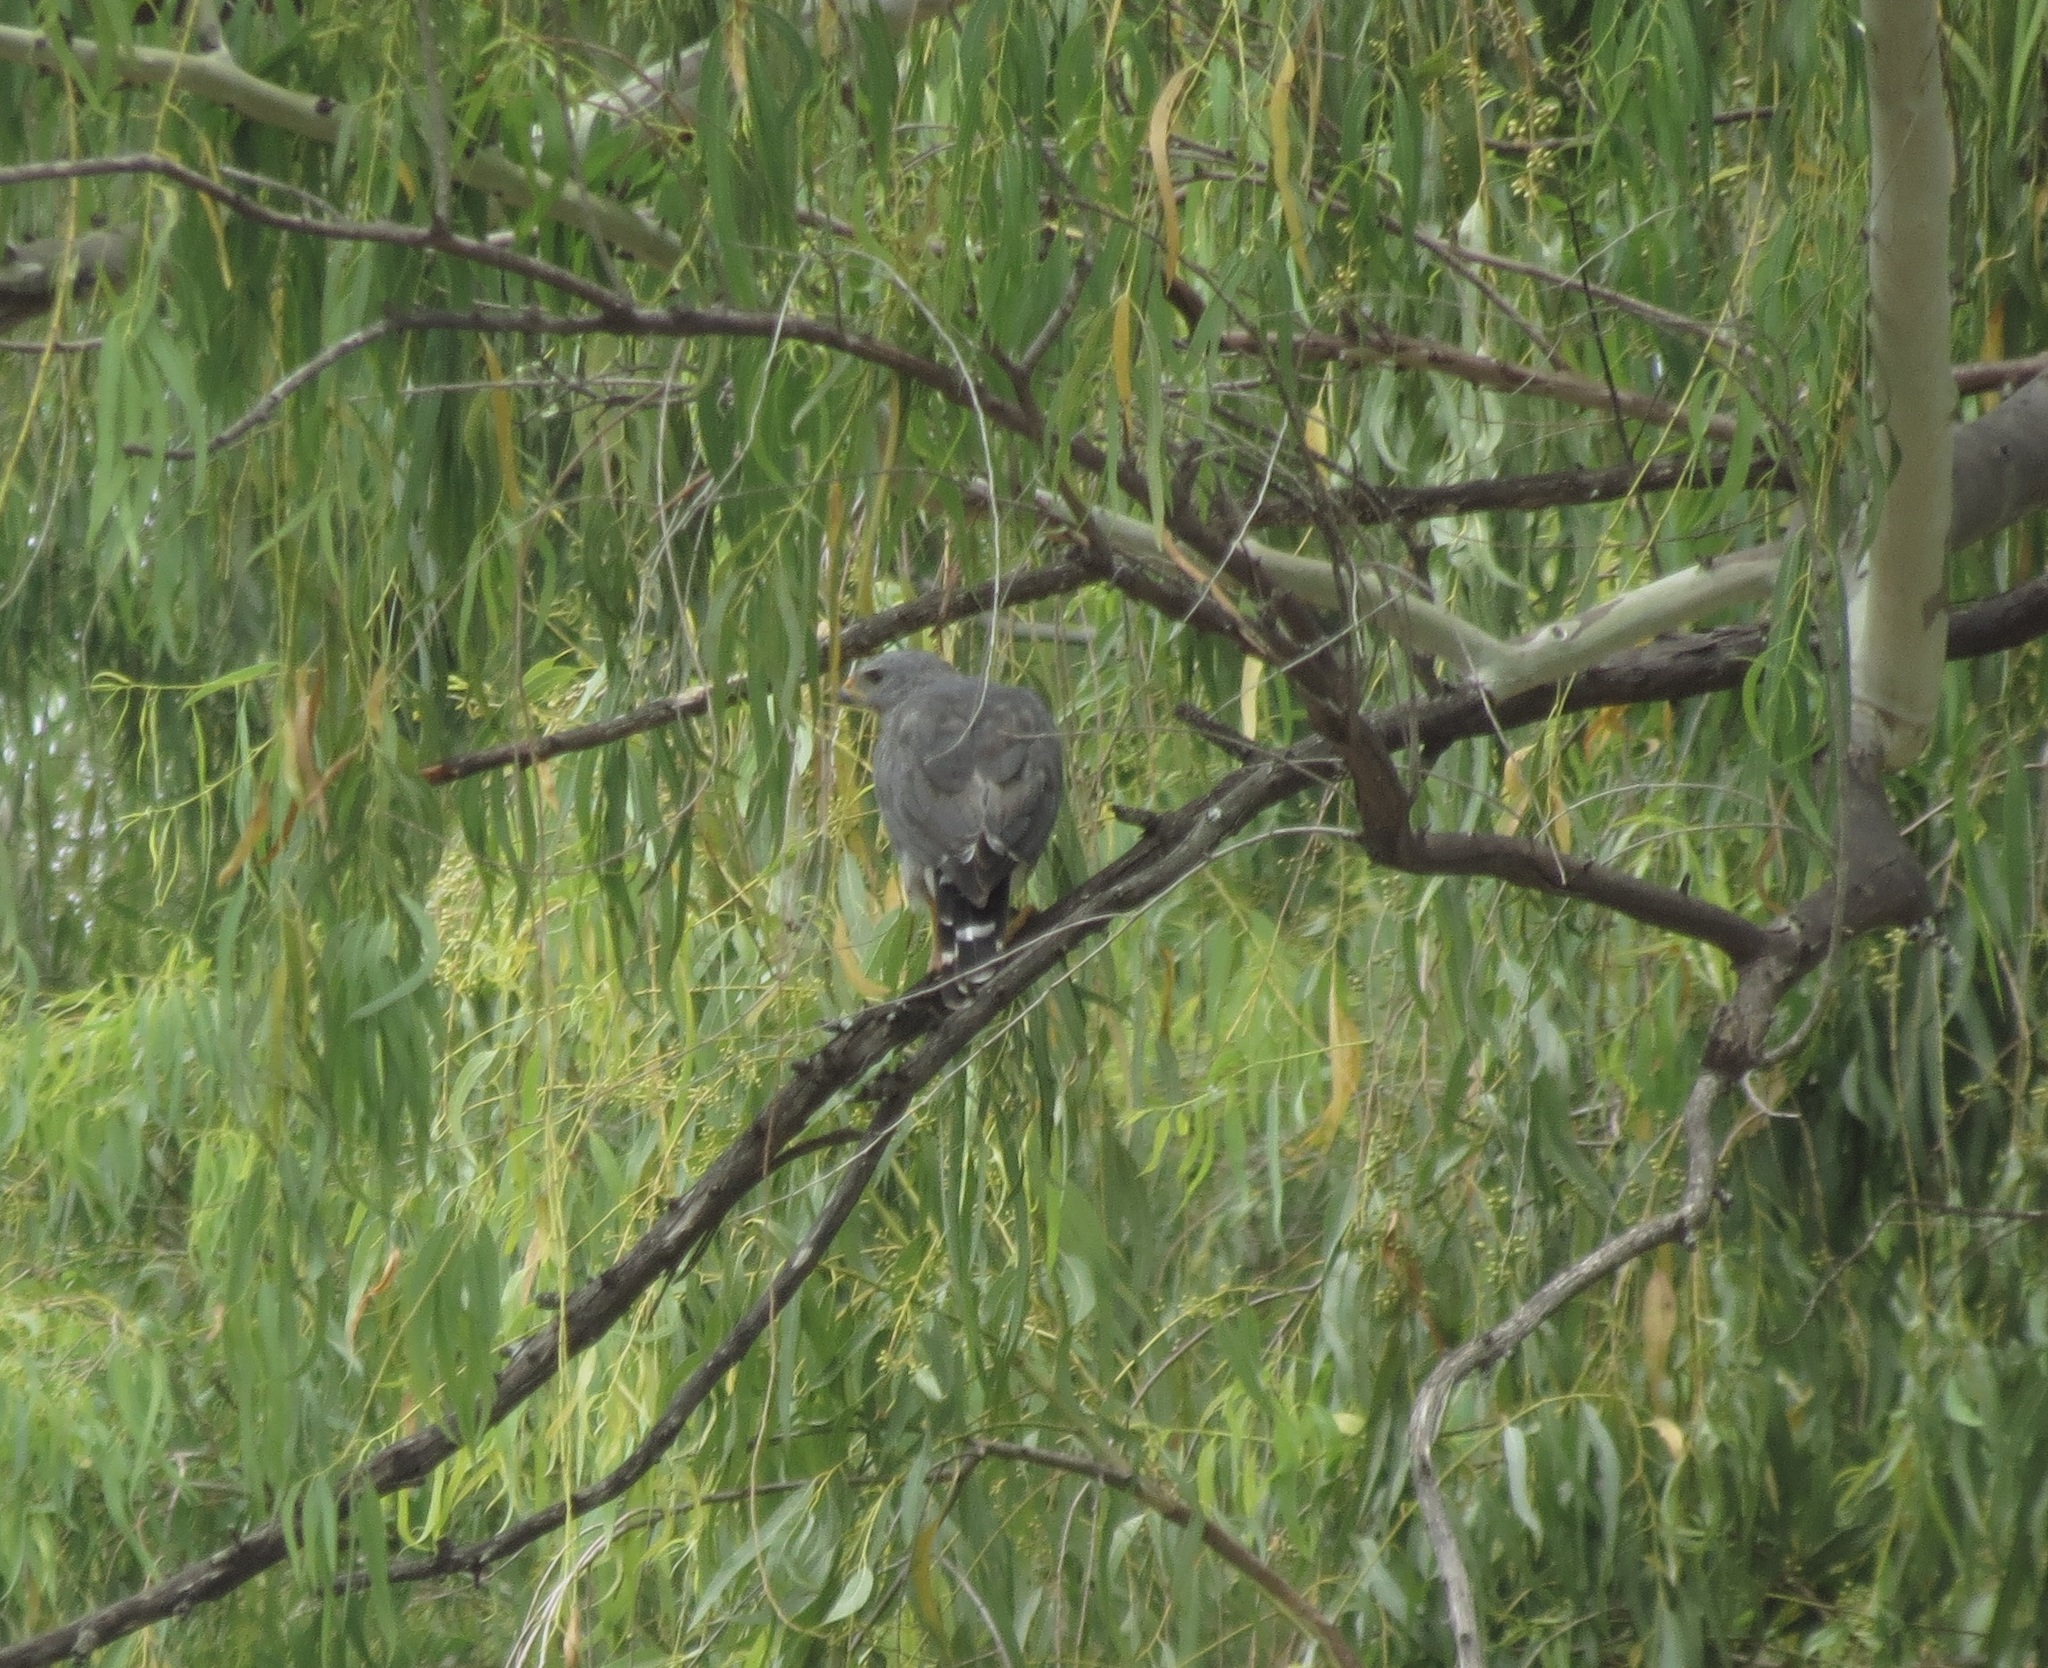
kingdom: Animalia
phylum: Chordata
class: Aves
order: Accipitriformes
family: Accipitridae
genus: Buteo
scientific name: Buteo nitidus
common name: Grey-lined hawk
